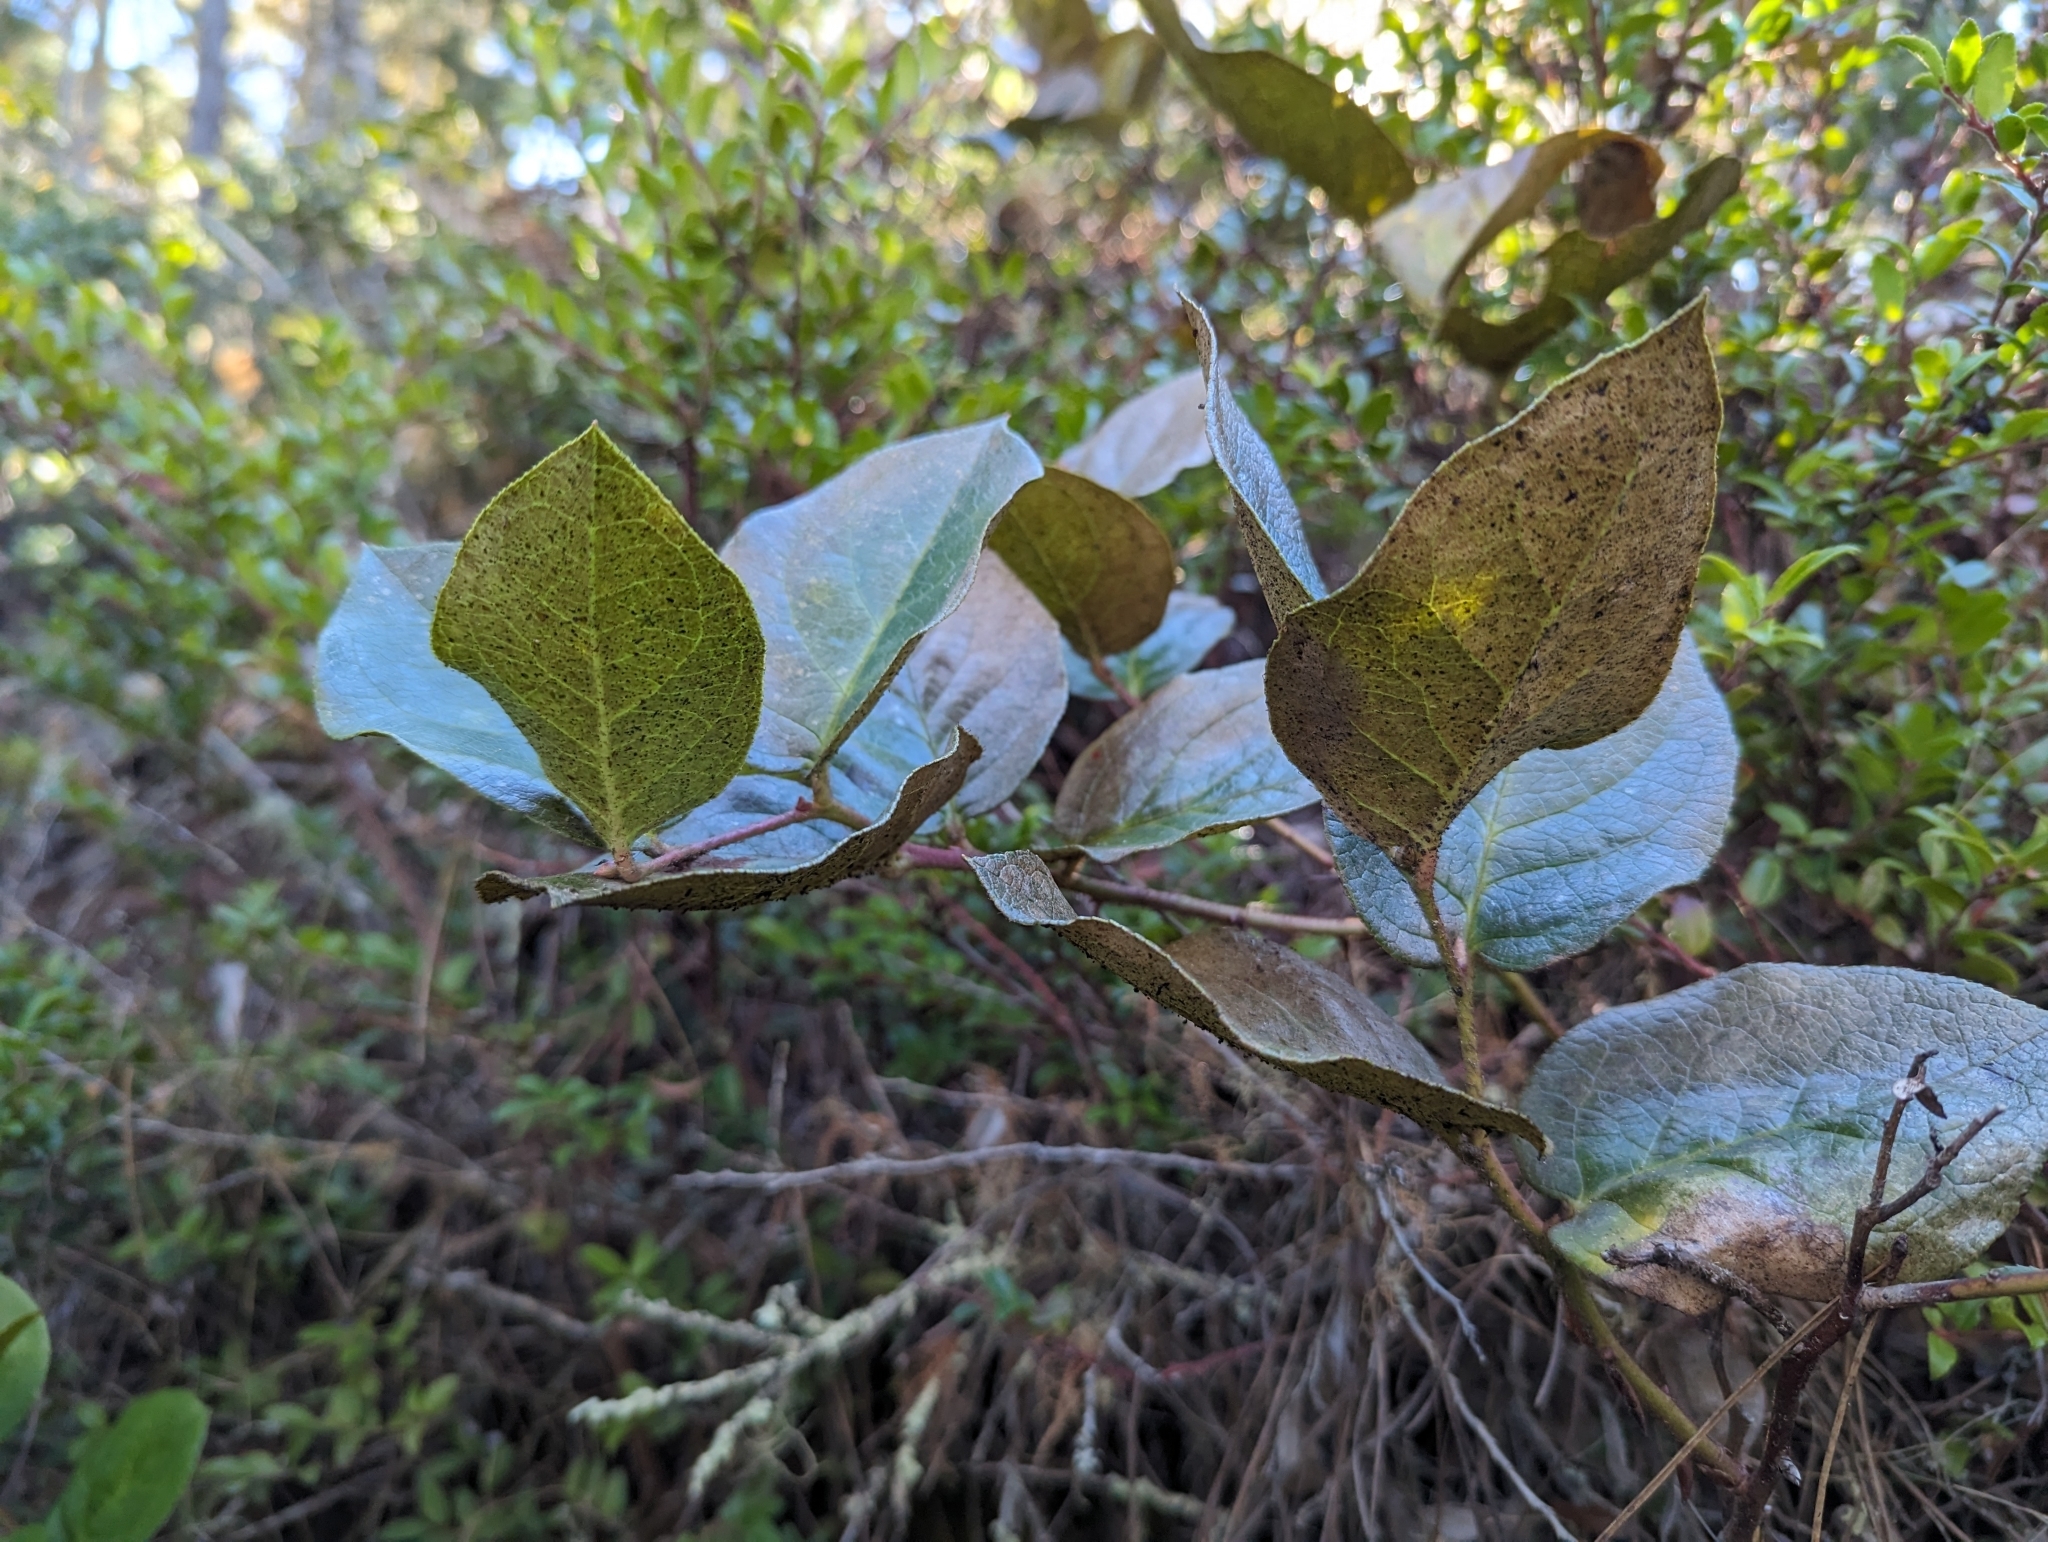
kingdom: Plantae
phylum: Tracheophyta
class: Magnoliopsida
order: Ericales
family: Ericaceae
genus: Gaultheria
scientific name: Gaultheria shallon
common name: Shallon
